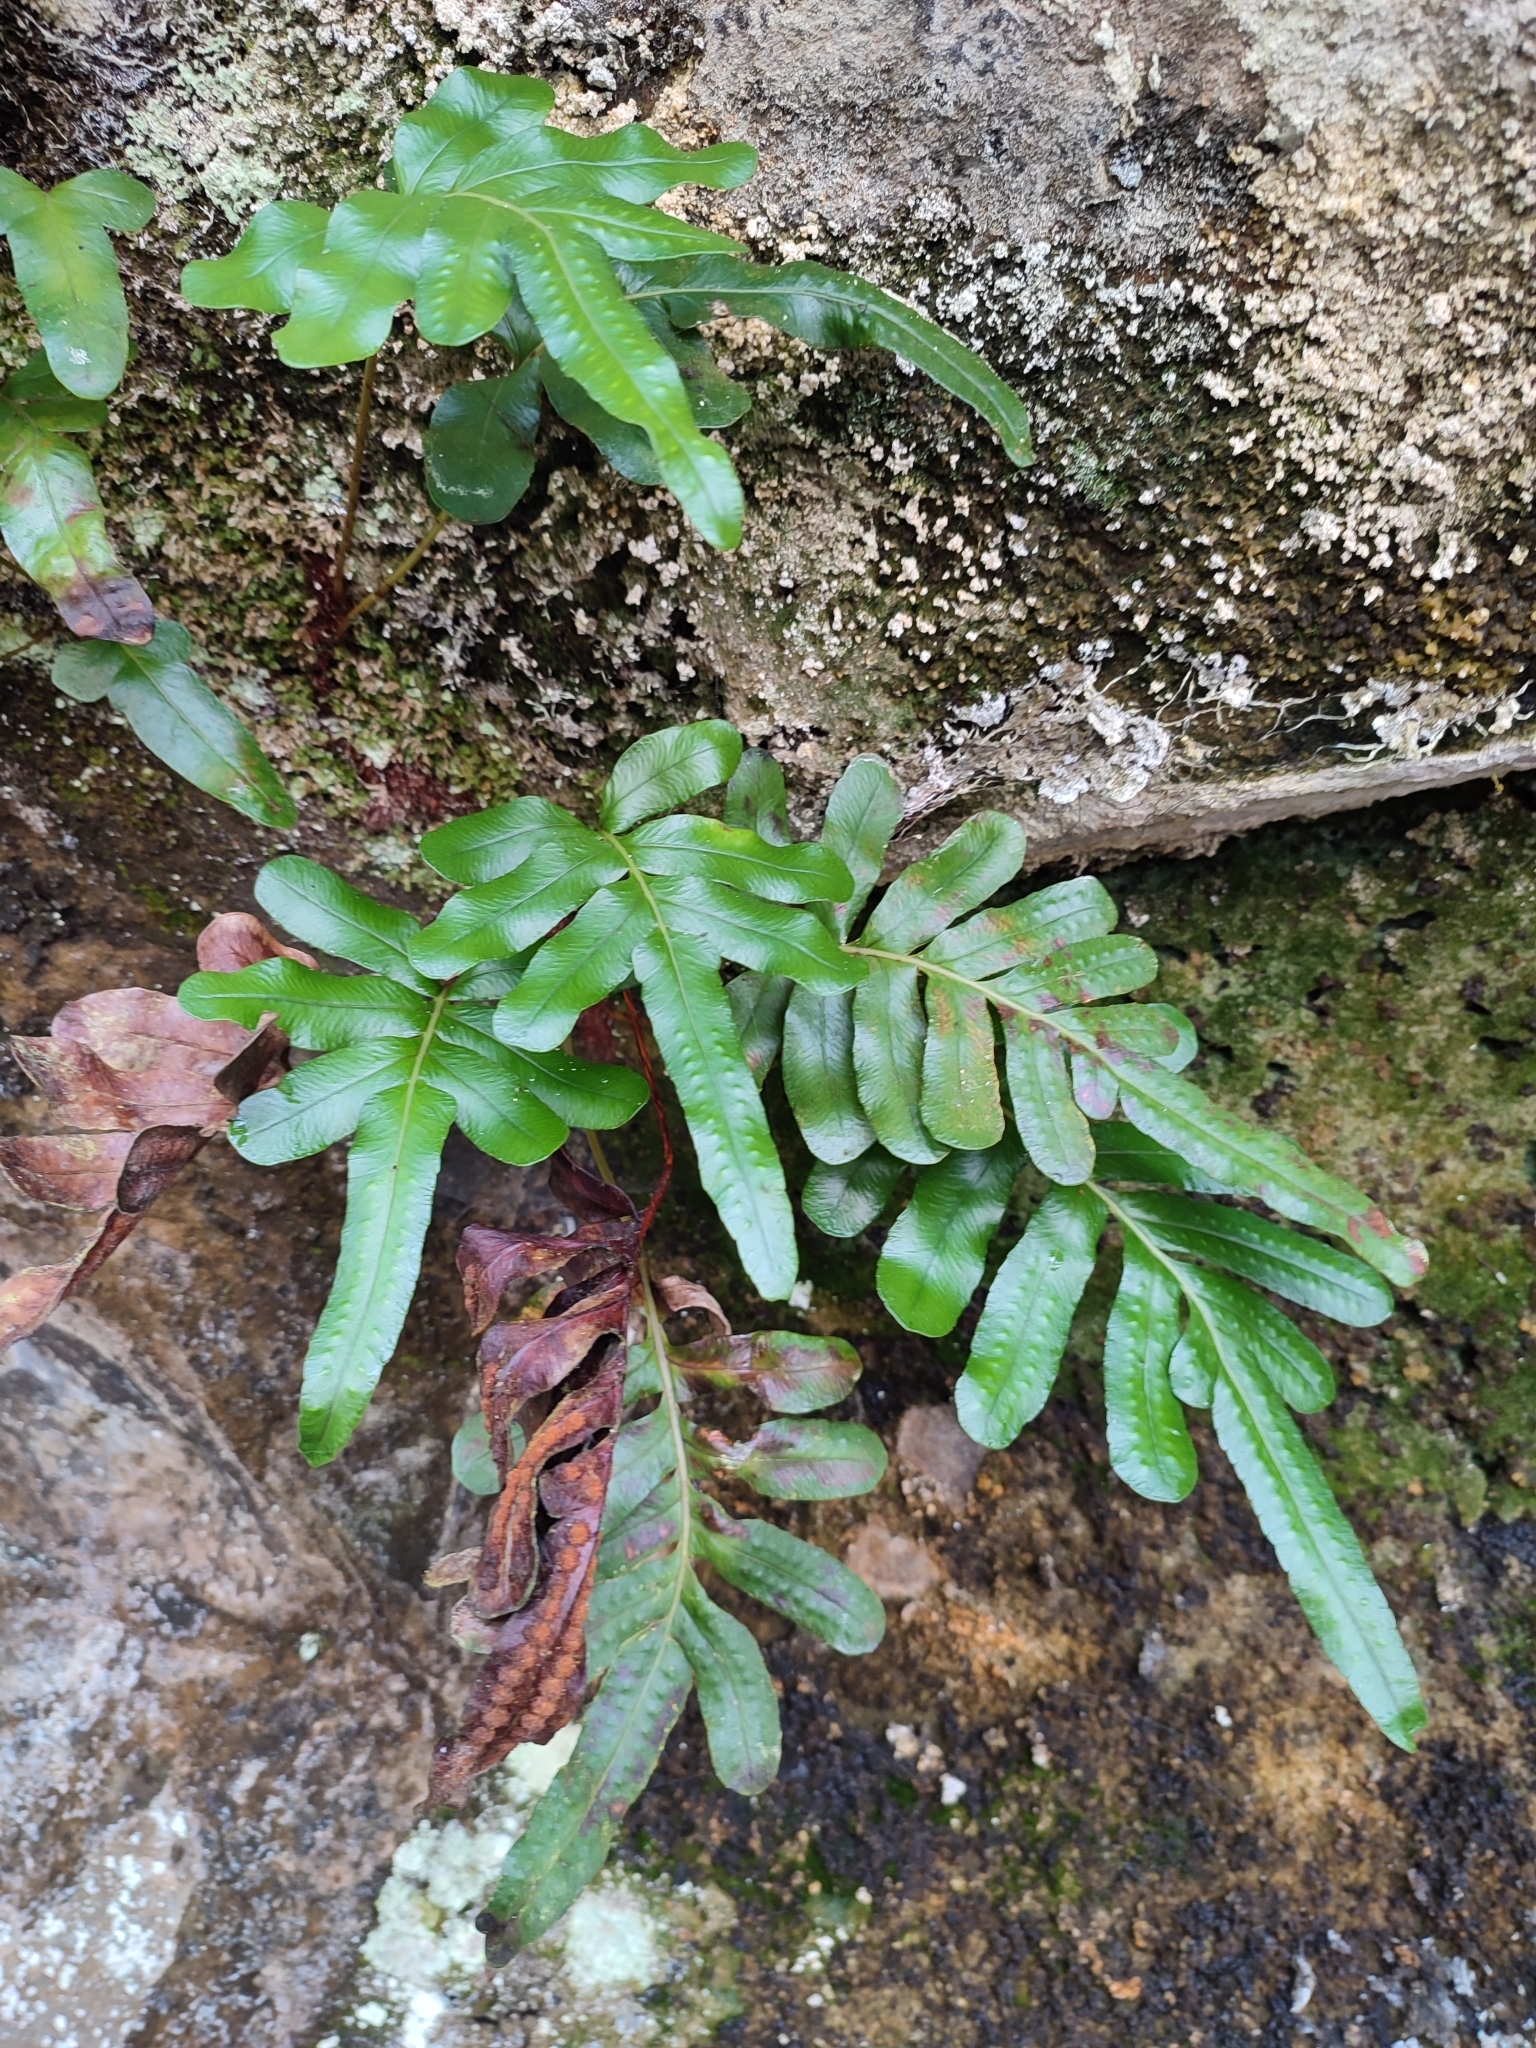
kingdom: Plantae
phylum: Tracheophyta
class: Polypodiopsida
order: Polypodiales
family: Polypodiaceae
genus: Polypodium
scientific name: Polypodium scouleri
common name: Scouler's polypody
